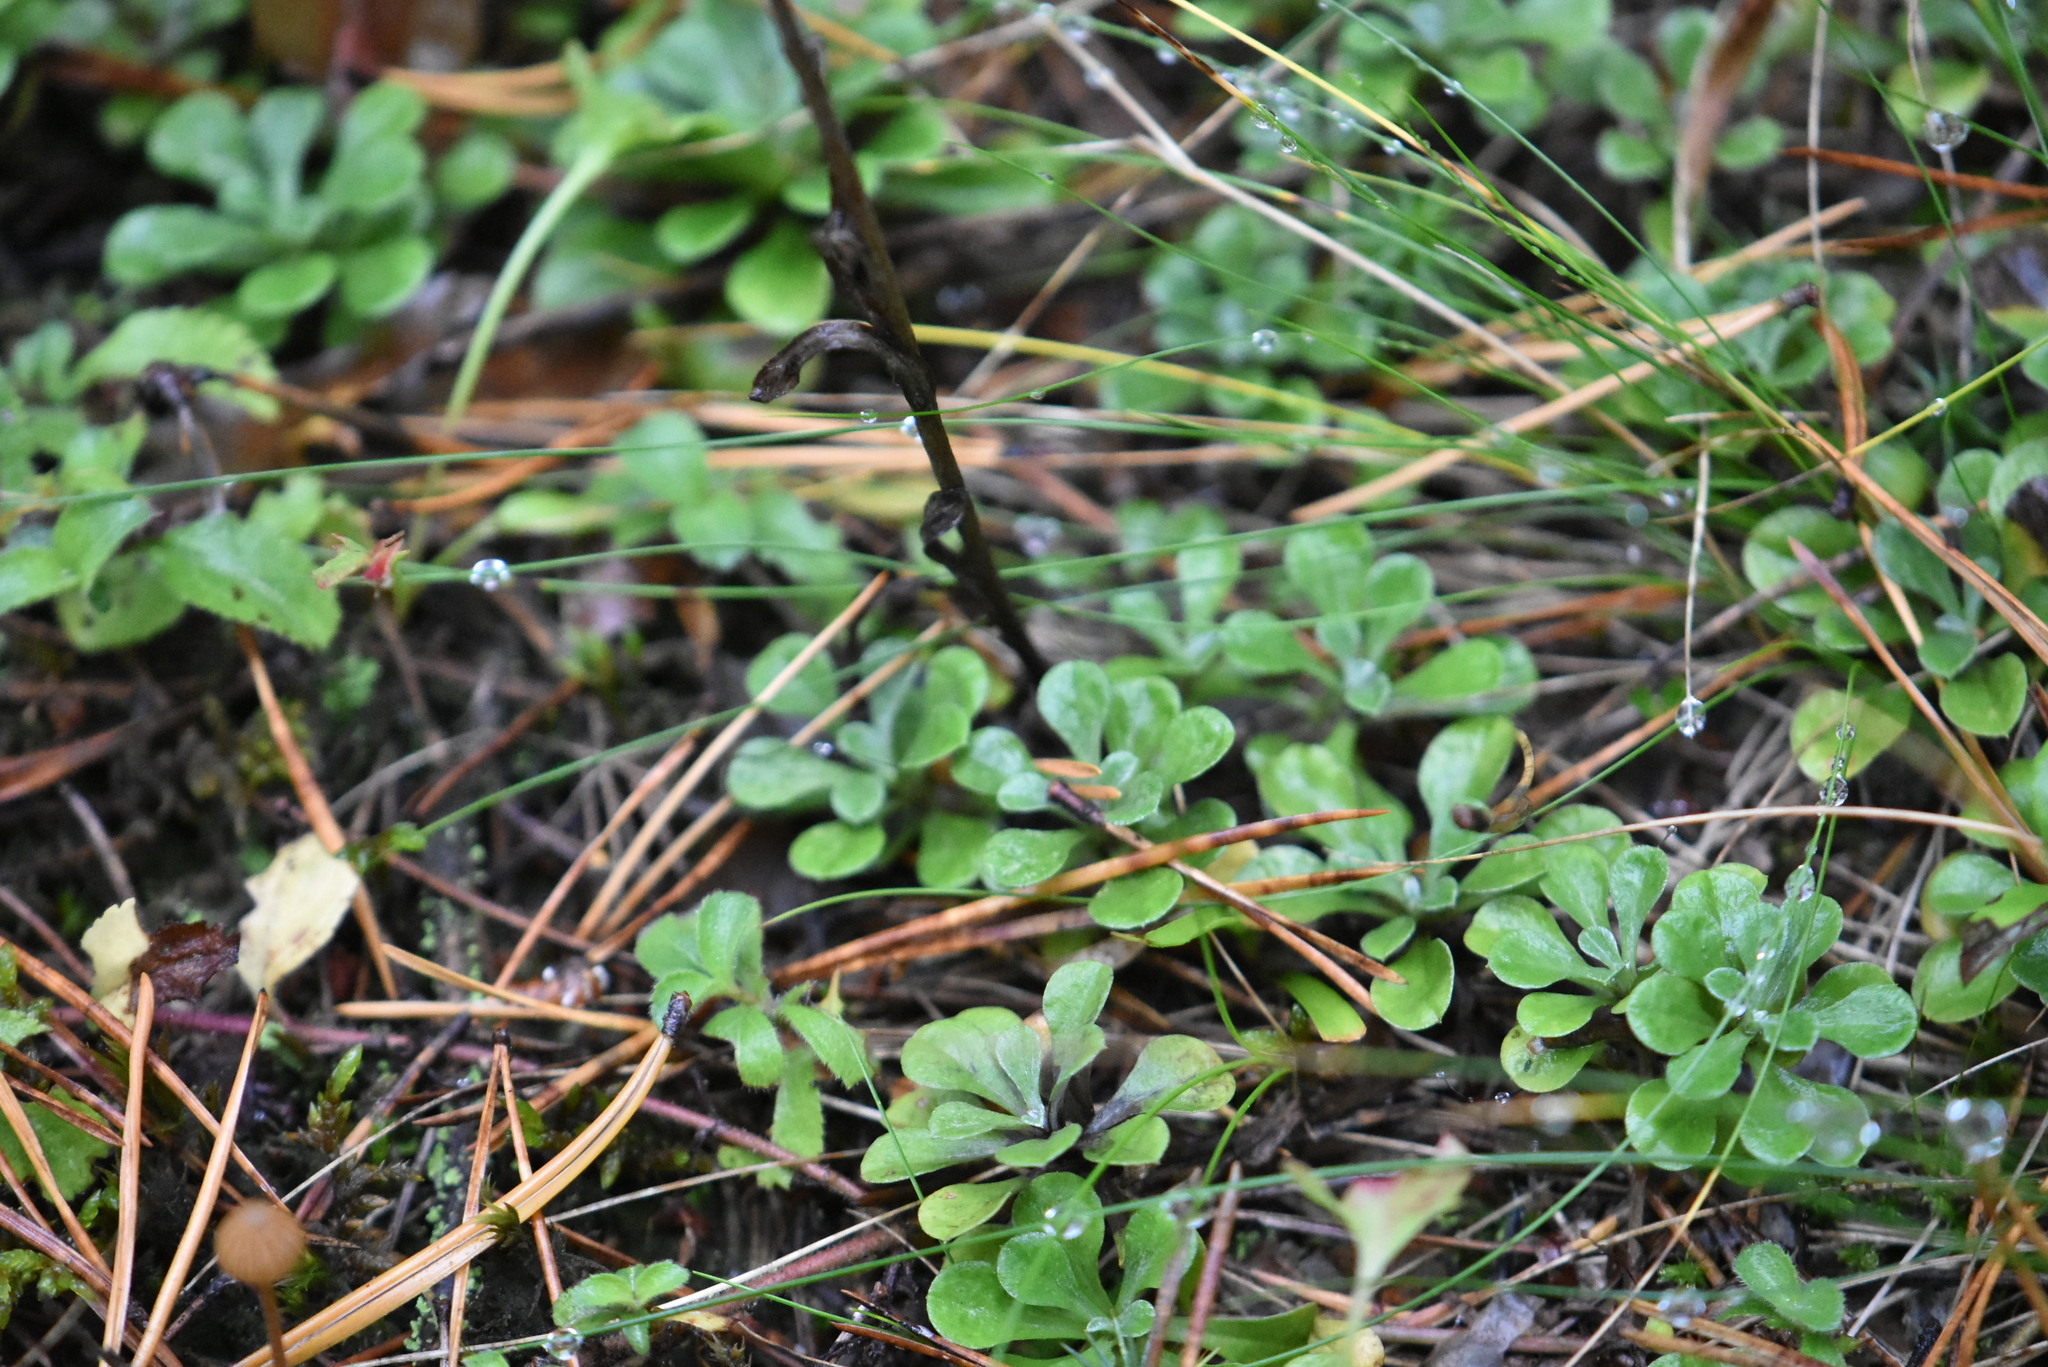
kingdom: Plantae
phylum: Tracheophyta
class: Magnoliopsida
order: Asterales
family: Asteraceae
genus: Antennaria
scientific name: Antennaria dioica
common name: Mountain everlasting
